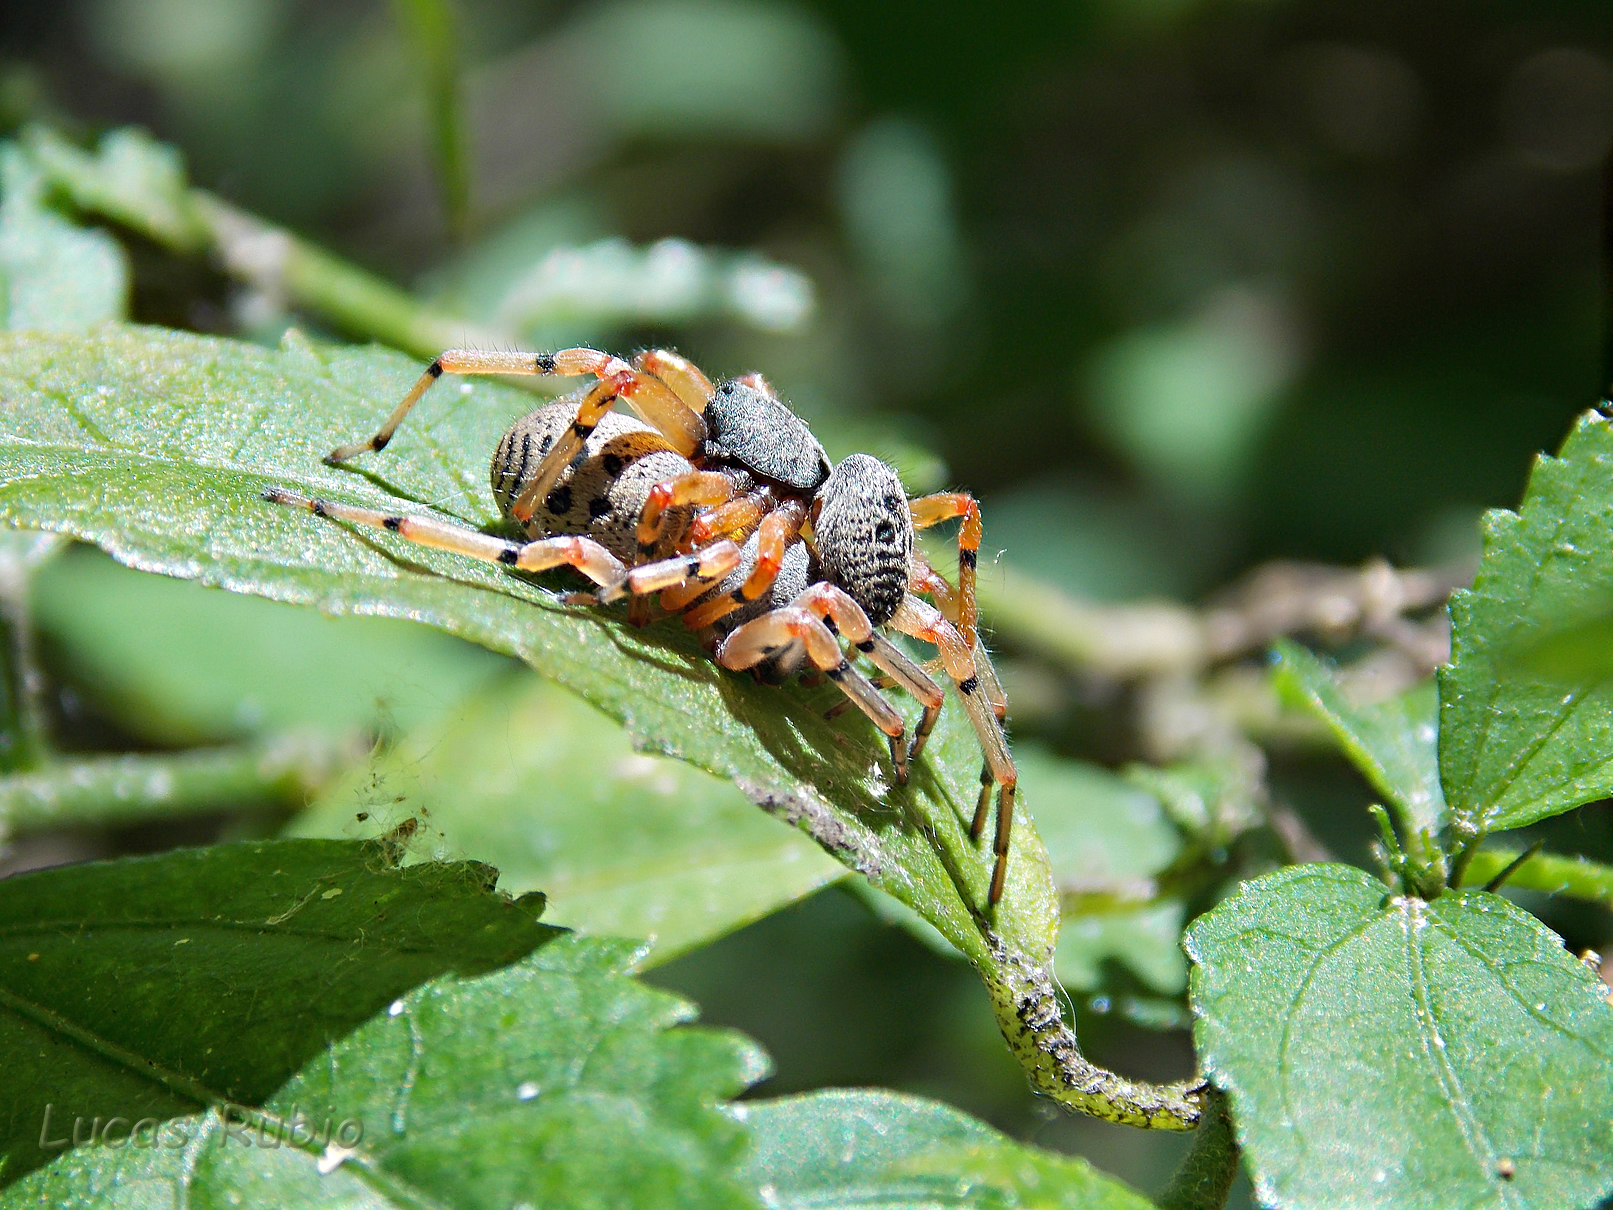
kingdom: Animalia
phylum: Arthropoda
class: Arachnida
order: Araneae
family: Trachelidae
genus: Trachelopachys
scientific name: Trachelopachys
